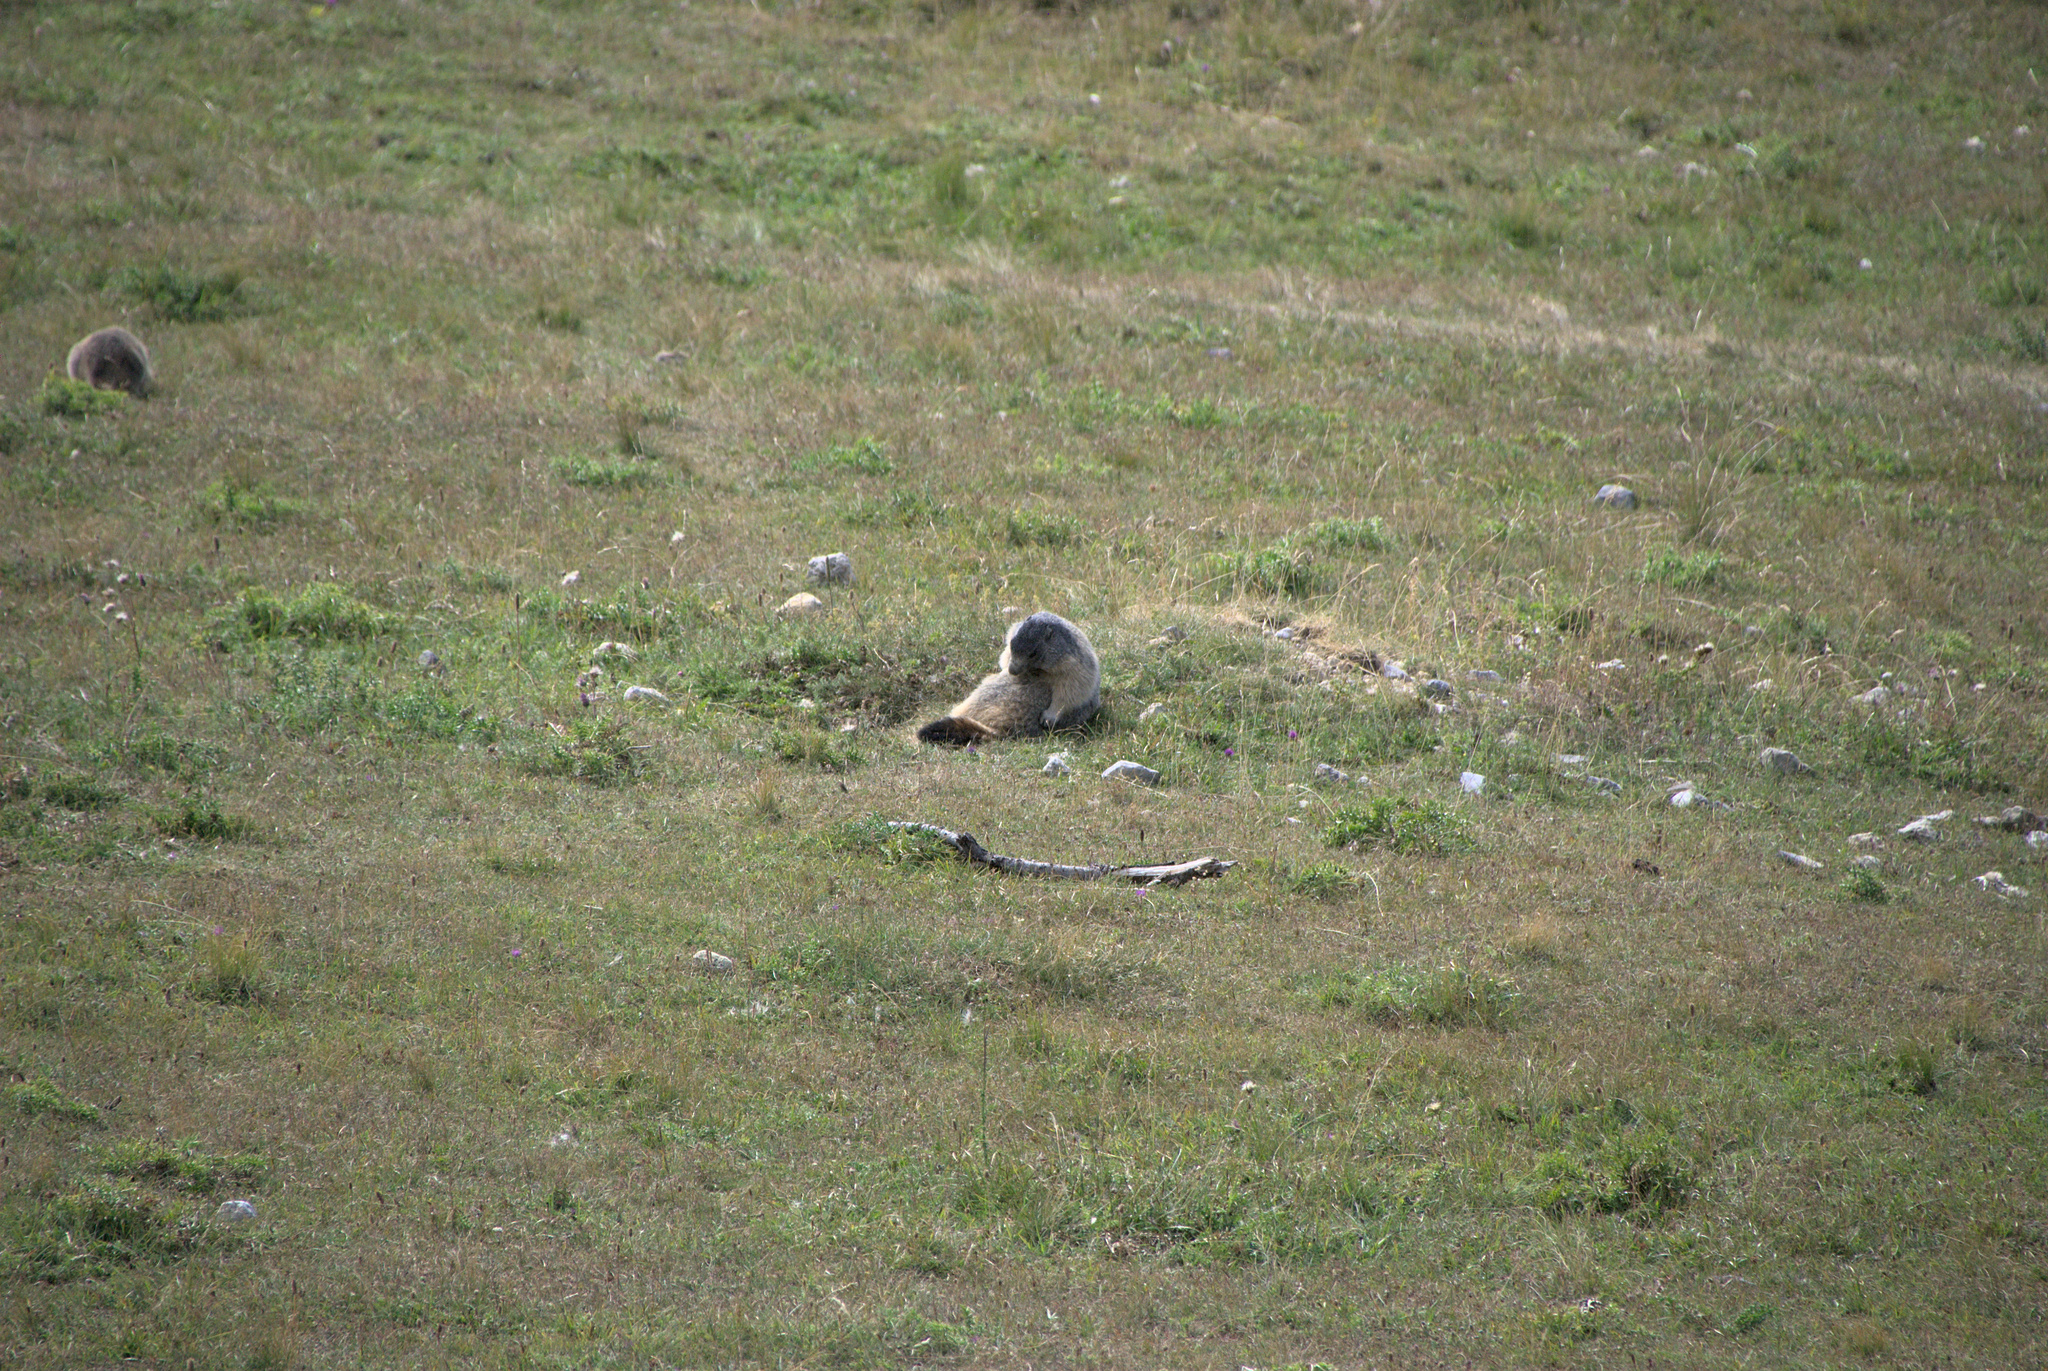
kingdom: Animalia
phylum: Chordata
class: Mammalia
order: Rodentia
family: Sciuridae
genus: Marmota
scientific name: Marmota marmota
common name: Alpine marmot
